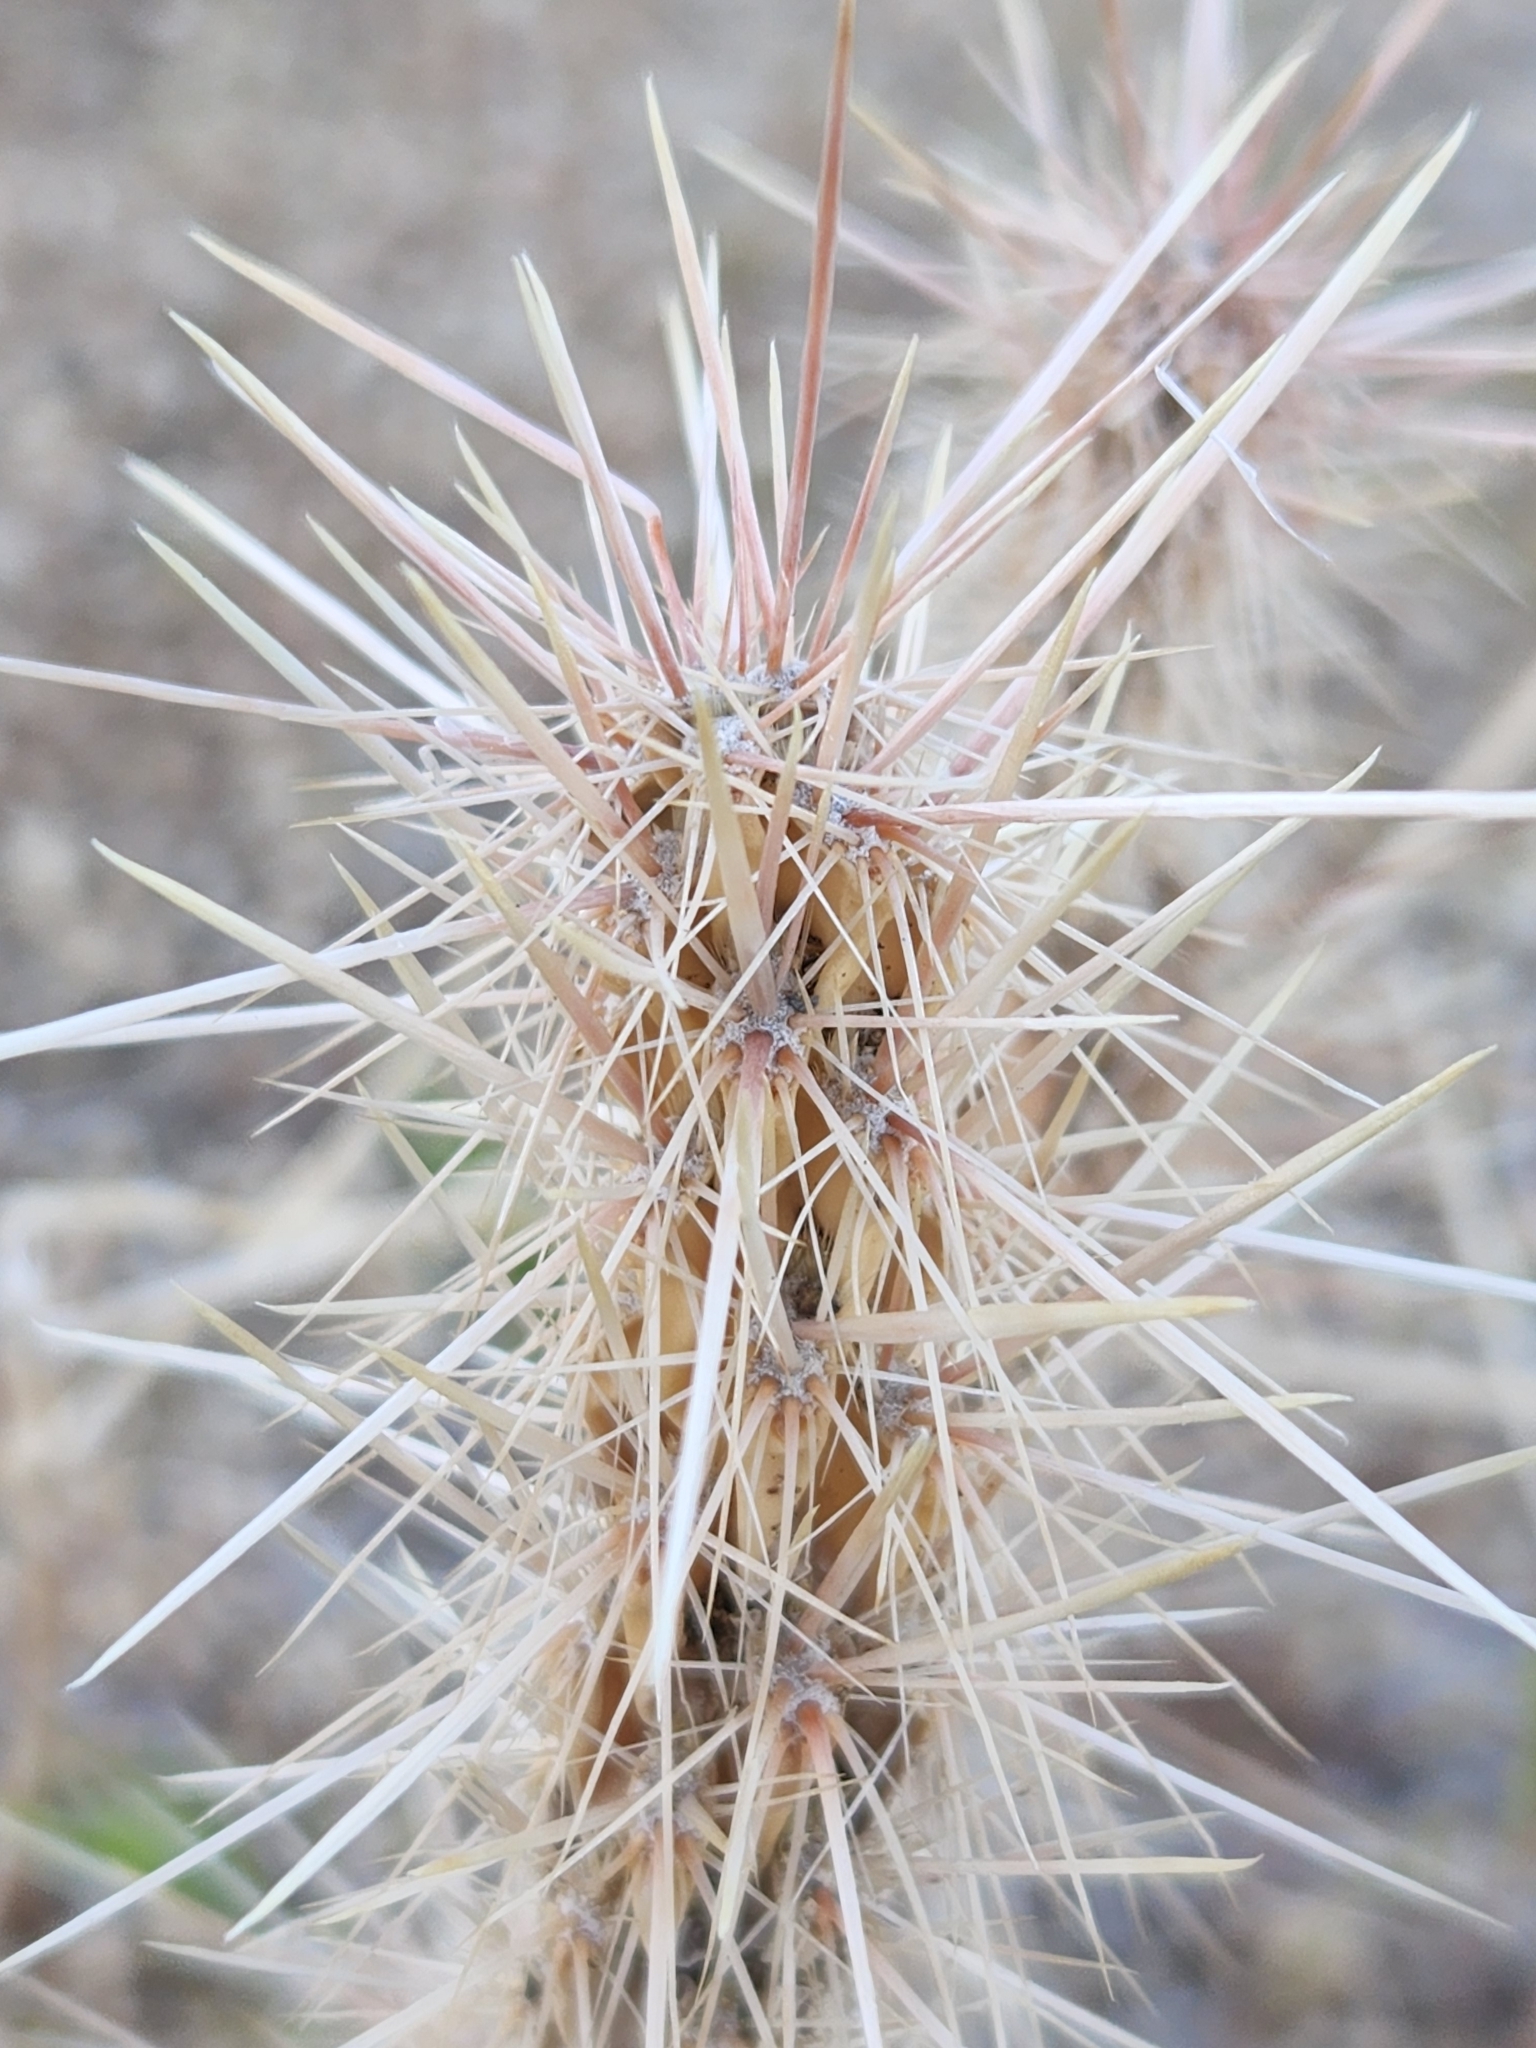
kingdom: Plantae
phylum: Tracheophyta
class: Magnoliopsida
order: Caryophyllales
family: Cactaceae
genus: Cylindropuntia
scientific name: Cylindropuntia ganderi
